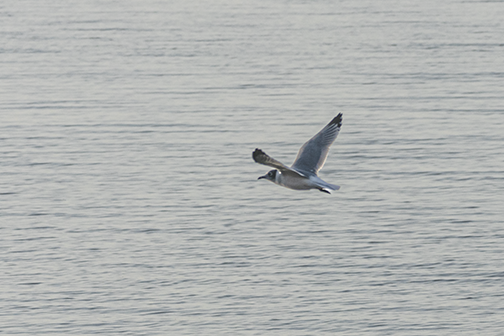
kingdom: Animalia
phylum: Chordata
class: Aves
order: Charadriiformes
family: Laridae
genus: Leucophaeus
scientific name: Leucophaeus pipixcan
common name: Franklin's gull
